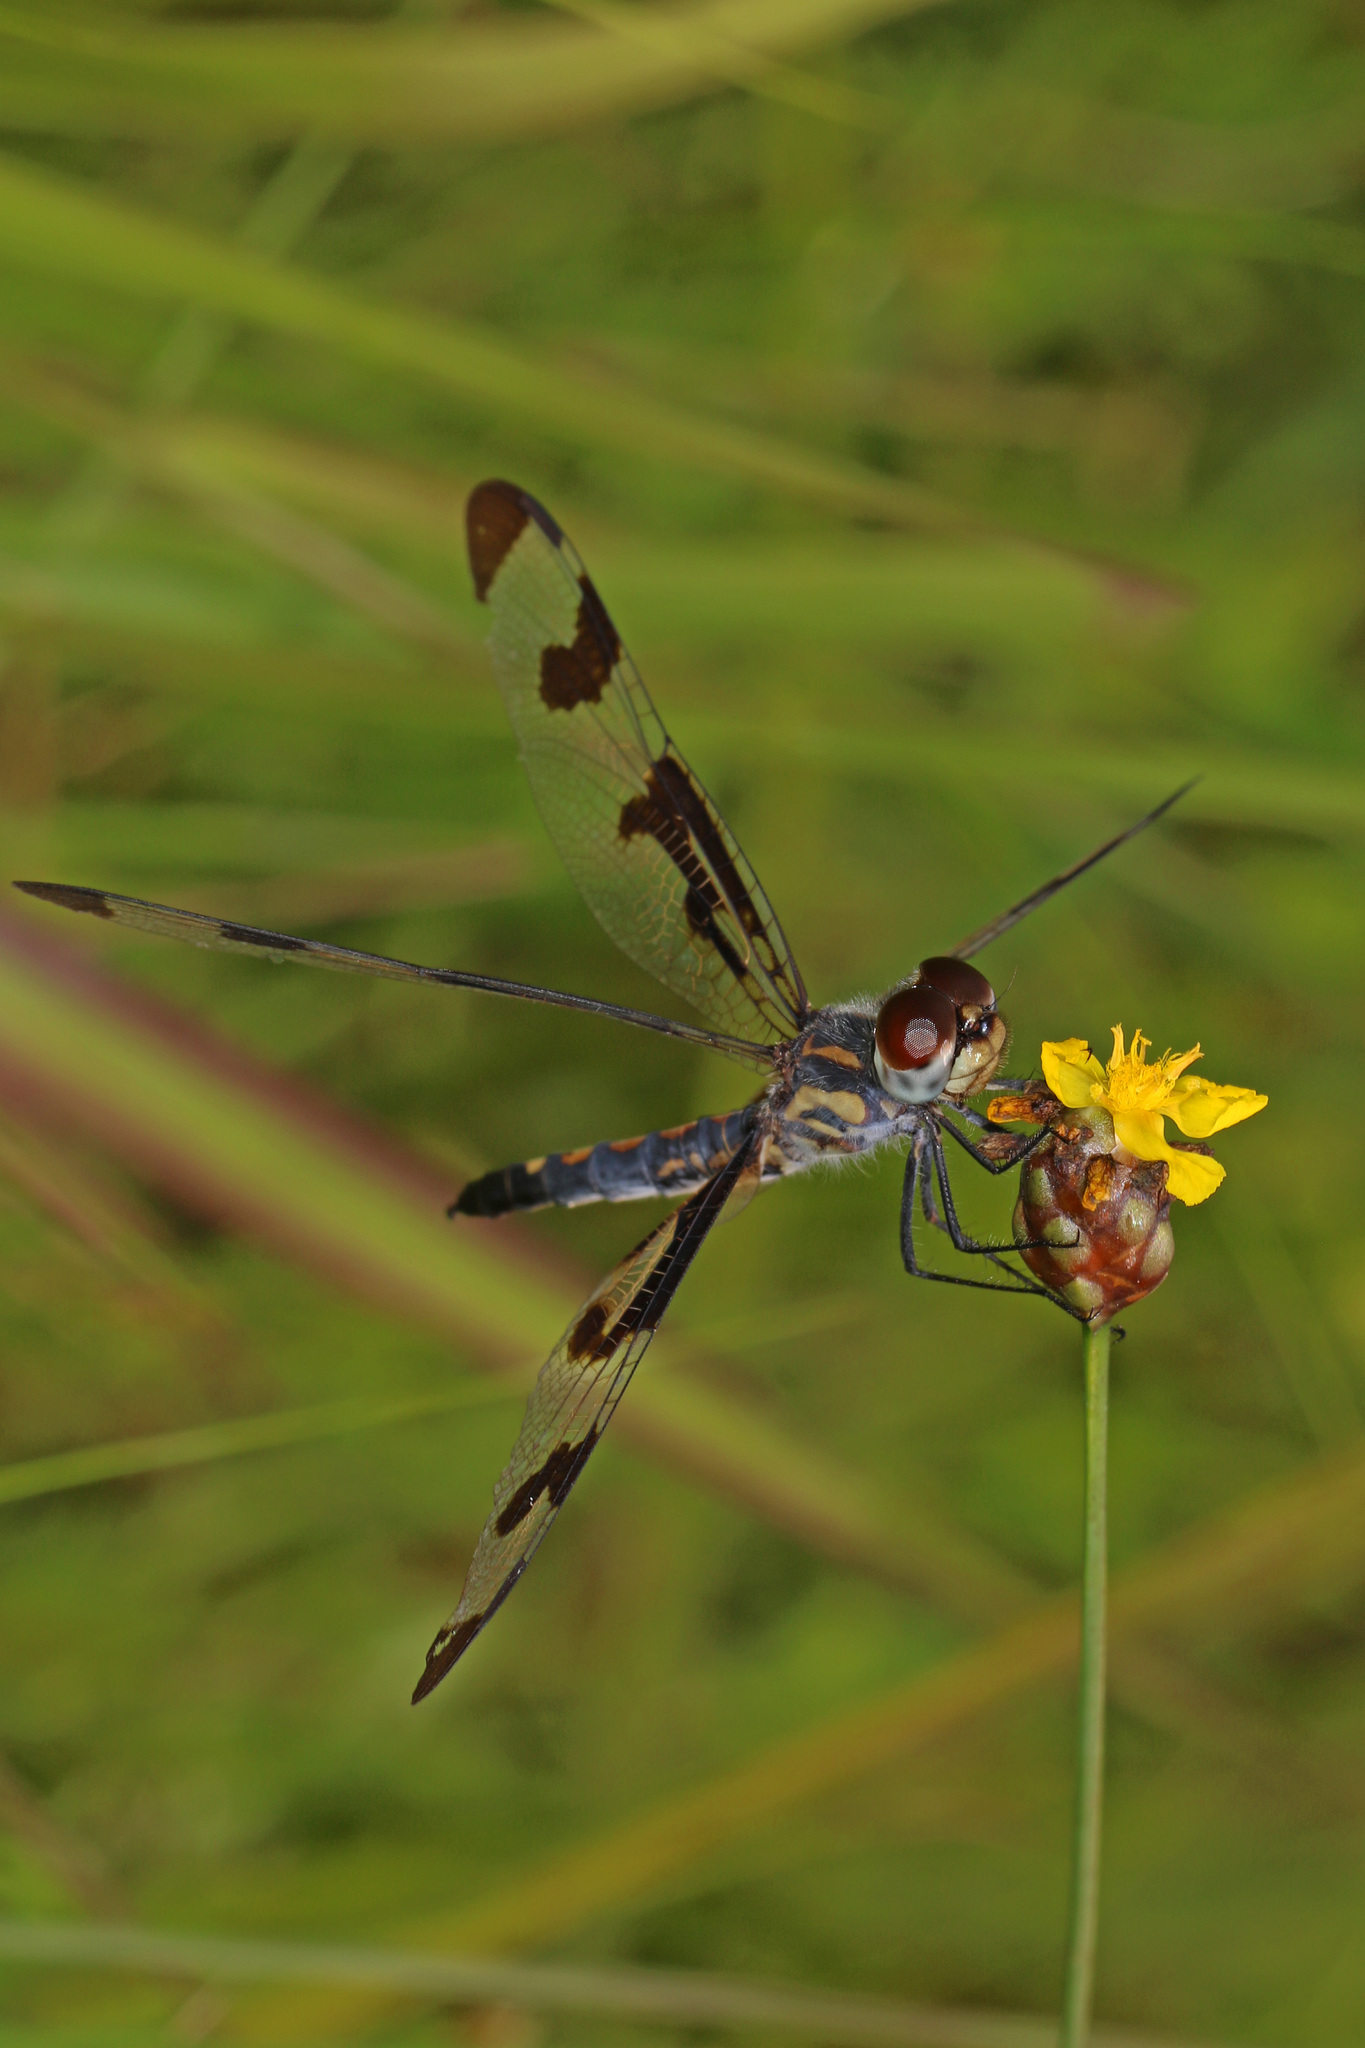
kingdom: Animalia
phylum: Arthropoda
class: Insecta
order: Odonata
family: Libellulidae
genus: Celithemis
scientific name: Celithemis fasciata
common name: Banded pennant
